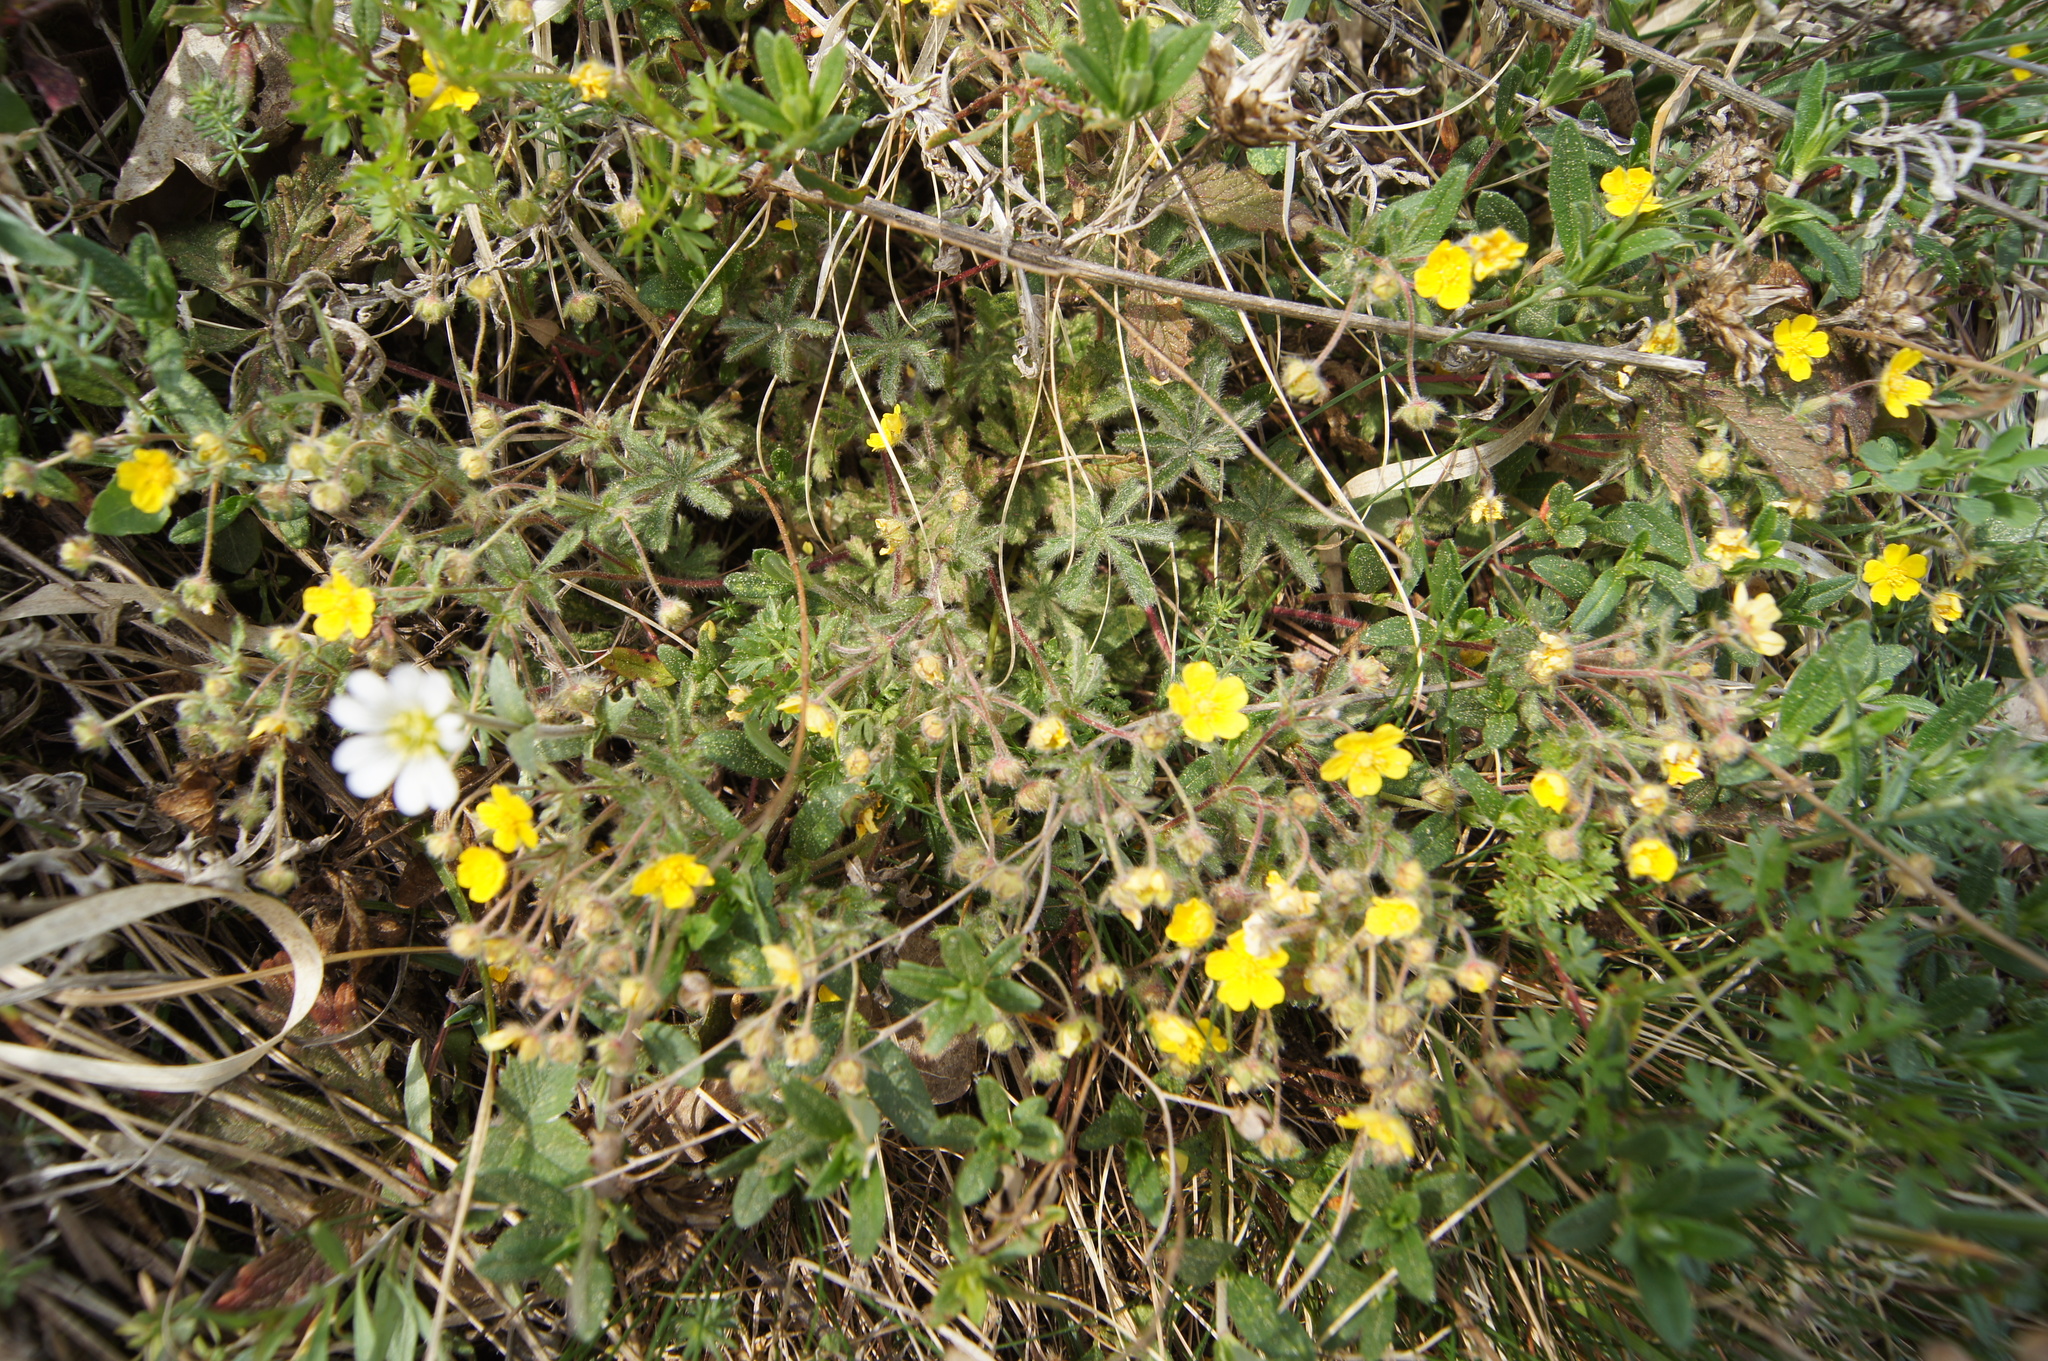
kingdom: Plantae
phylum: Tracheophyta
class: Magnoliopsida
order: Rosales
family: Rosaceae
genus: Potentilla
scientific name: Potentilla heptaphylla
